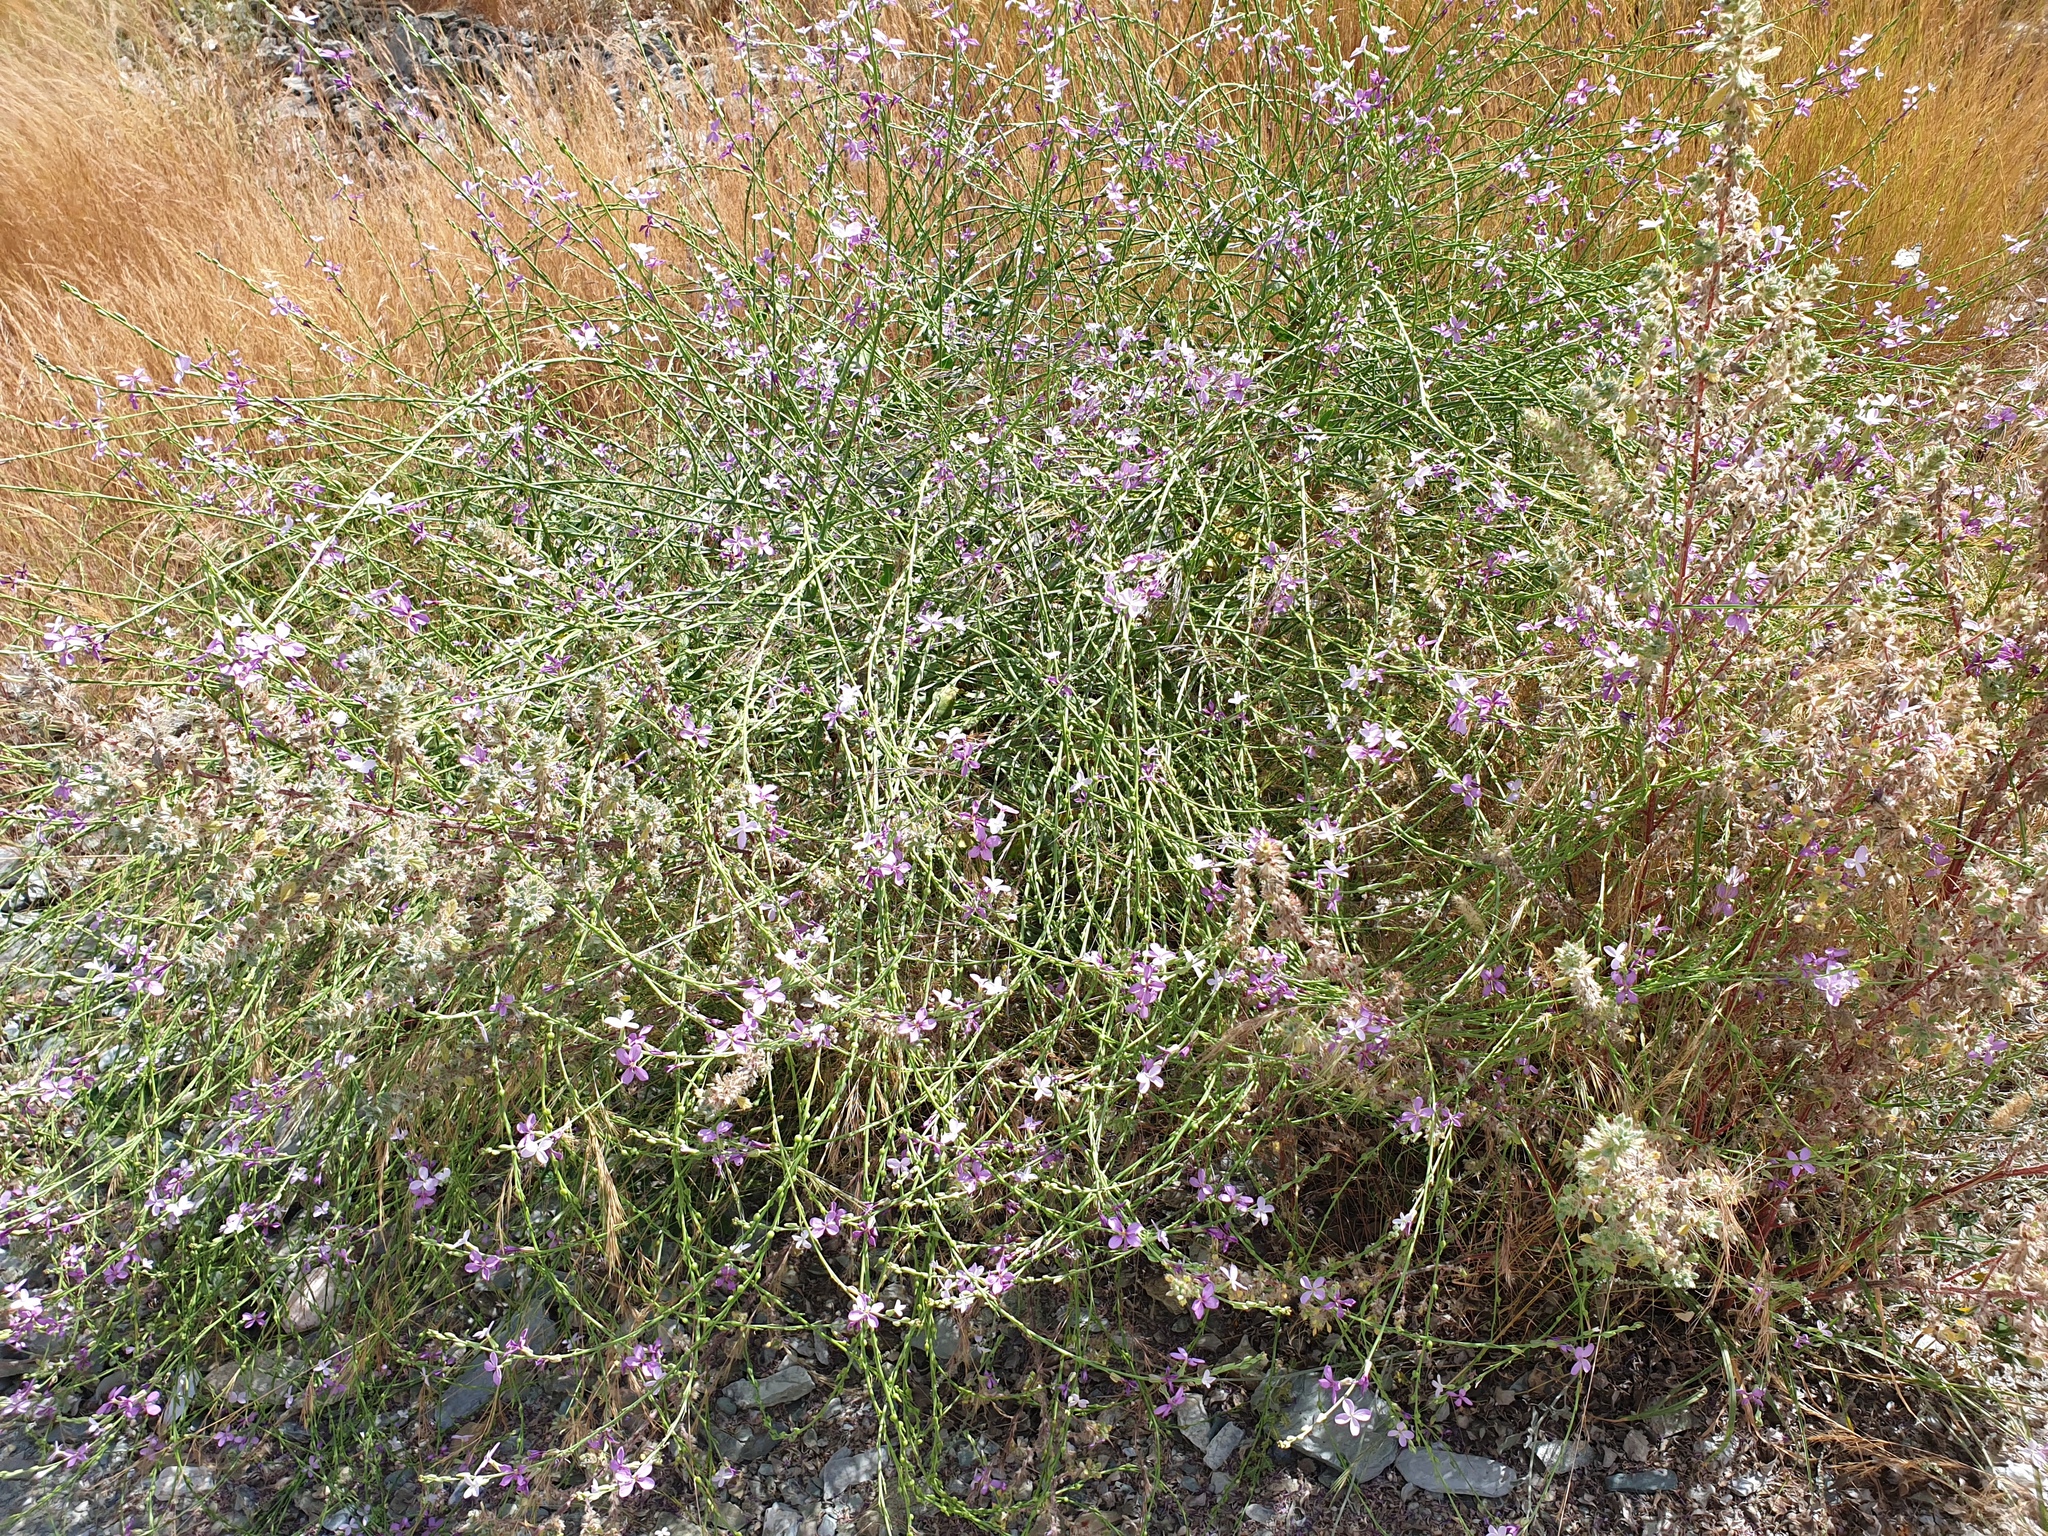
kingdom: Plantae
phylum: Tracheophyta
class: Magnoliopsida
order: Brassicales
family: Brassicaceae
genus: Physorhynchus
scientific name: Physorhynchus chamaerapistrum
